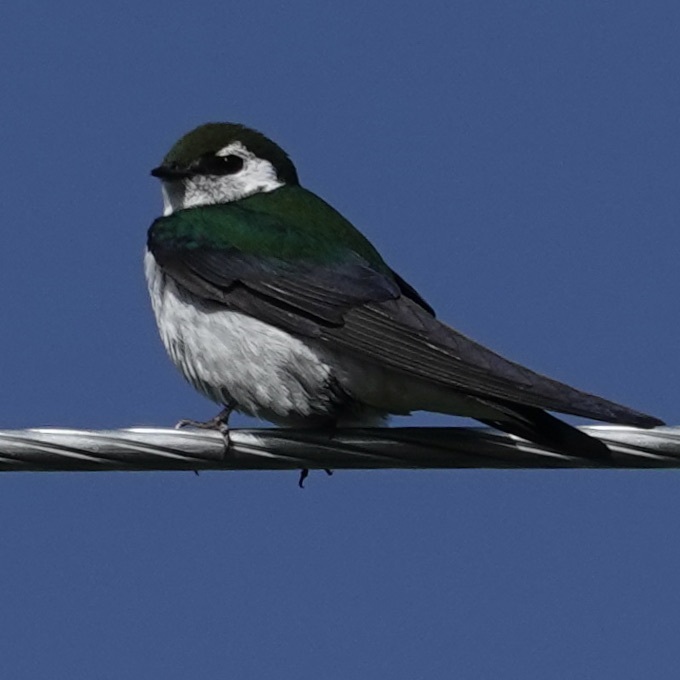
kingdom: Animalia
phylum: Chordata
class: Aves
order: Passeriformes
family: Hirundinidae
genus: Tachycineta
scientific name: Tachycineta thalassina
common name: Violet-green swallow
